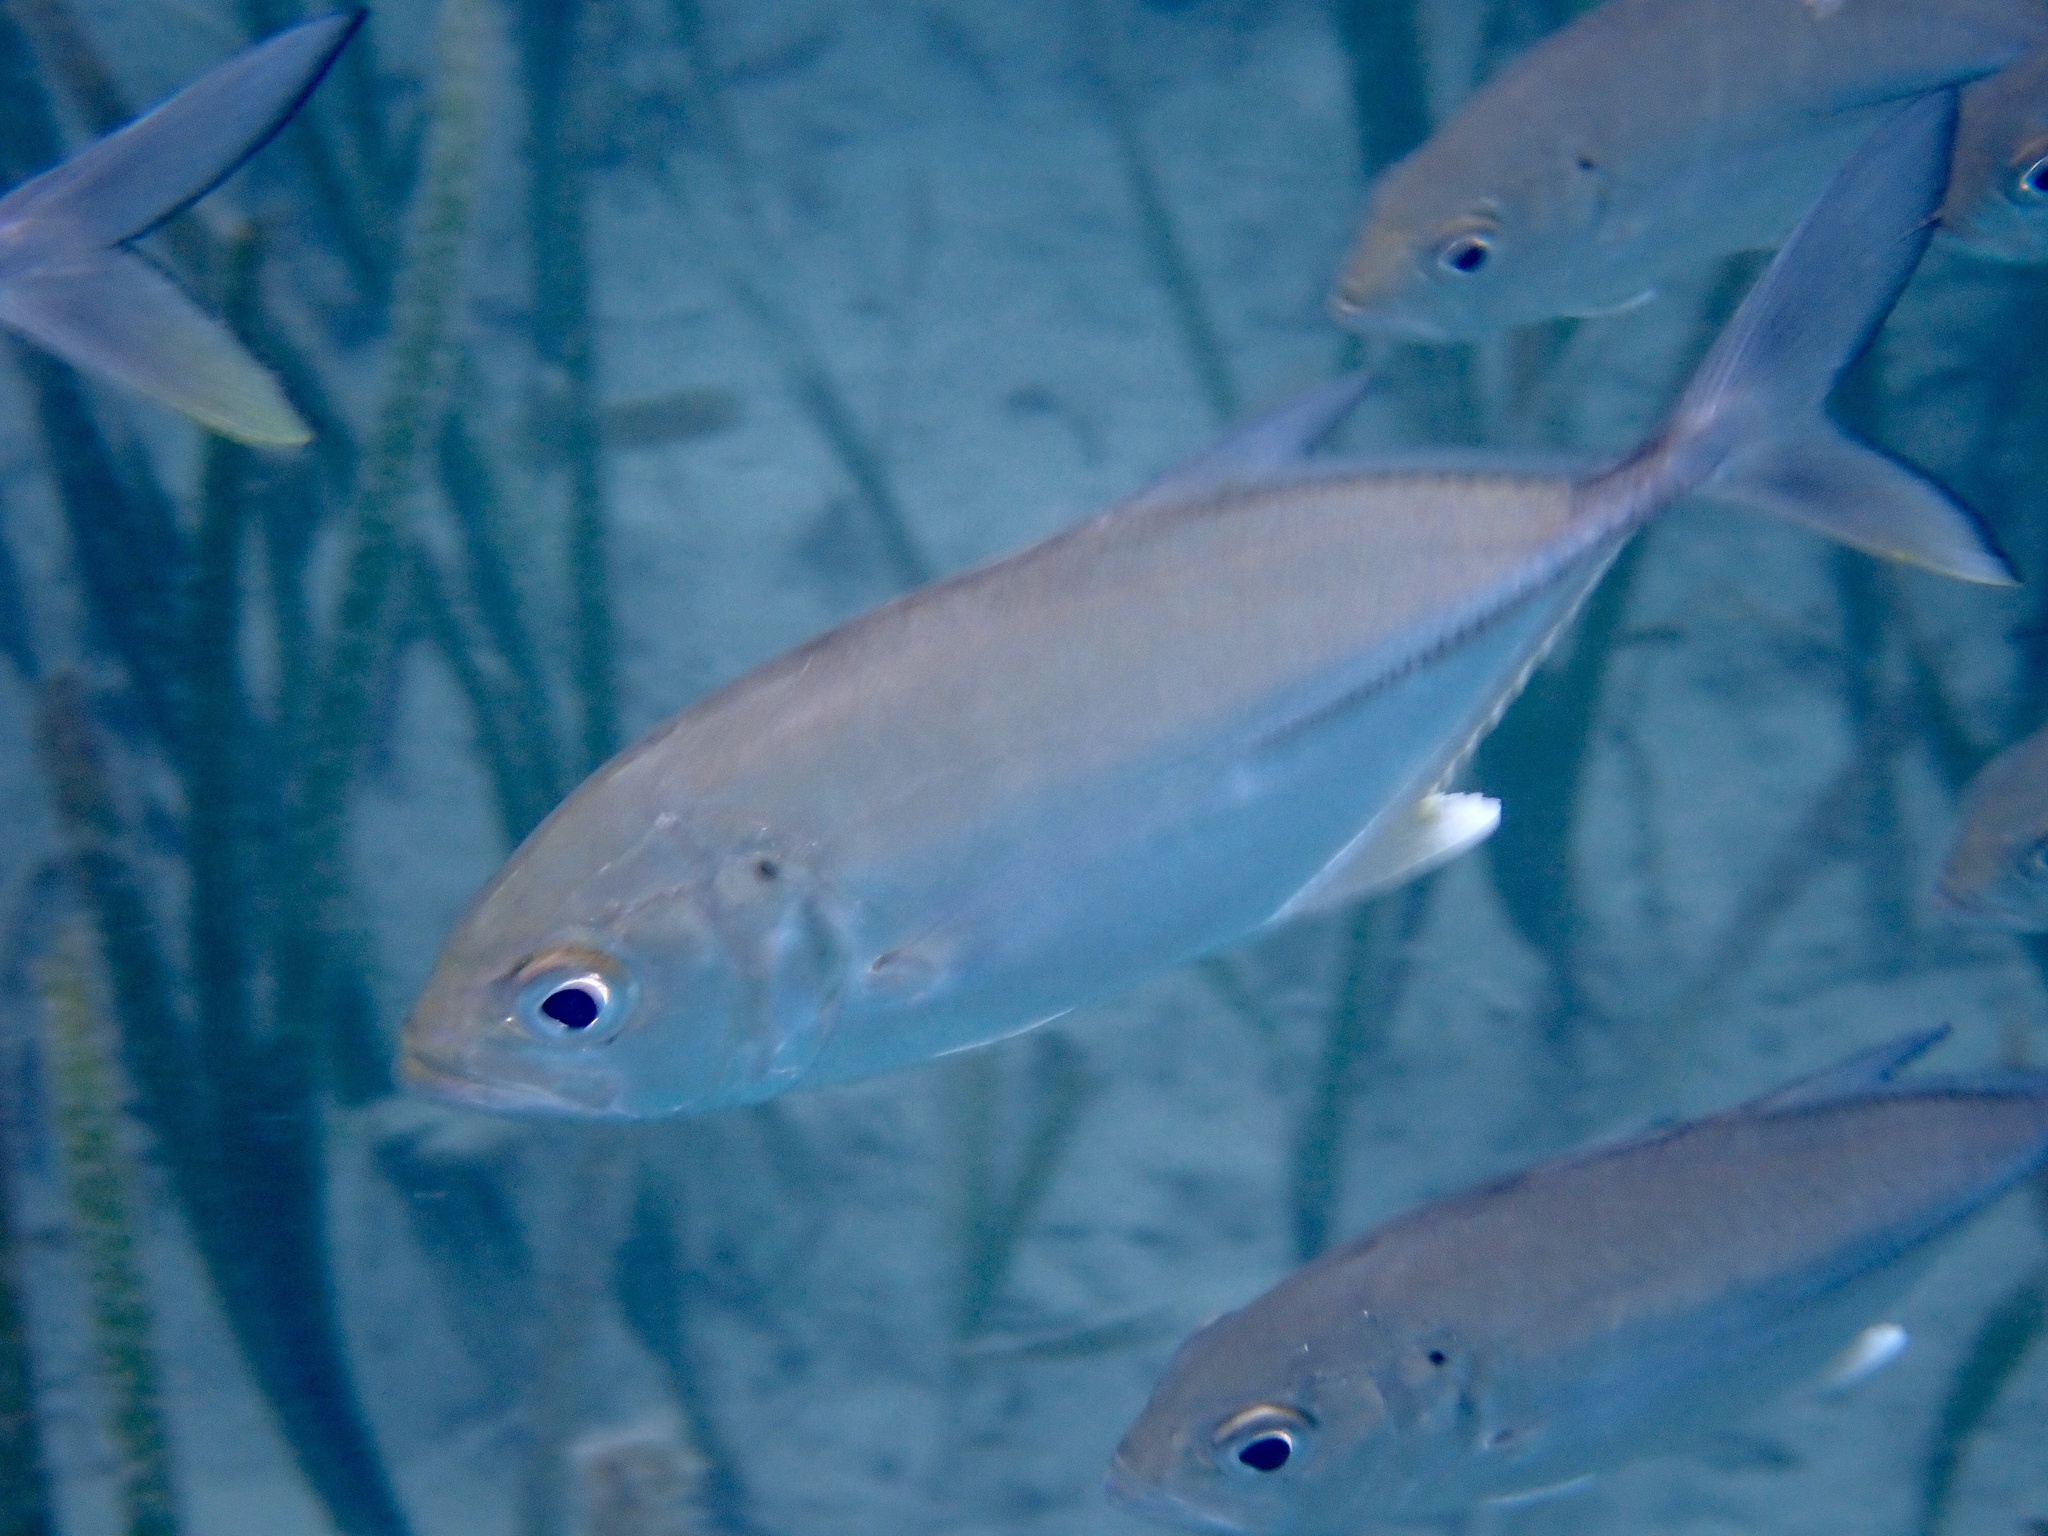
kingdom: Animalia
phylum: Chordata
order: Perciformes
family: Carangidae
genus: Caranx
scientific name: Caranx sexfasciatus
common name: Bigeye trevally
